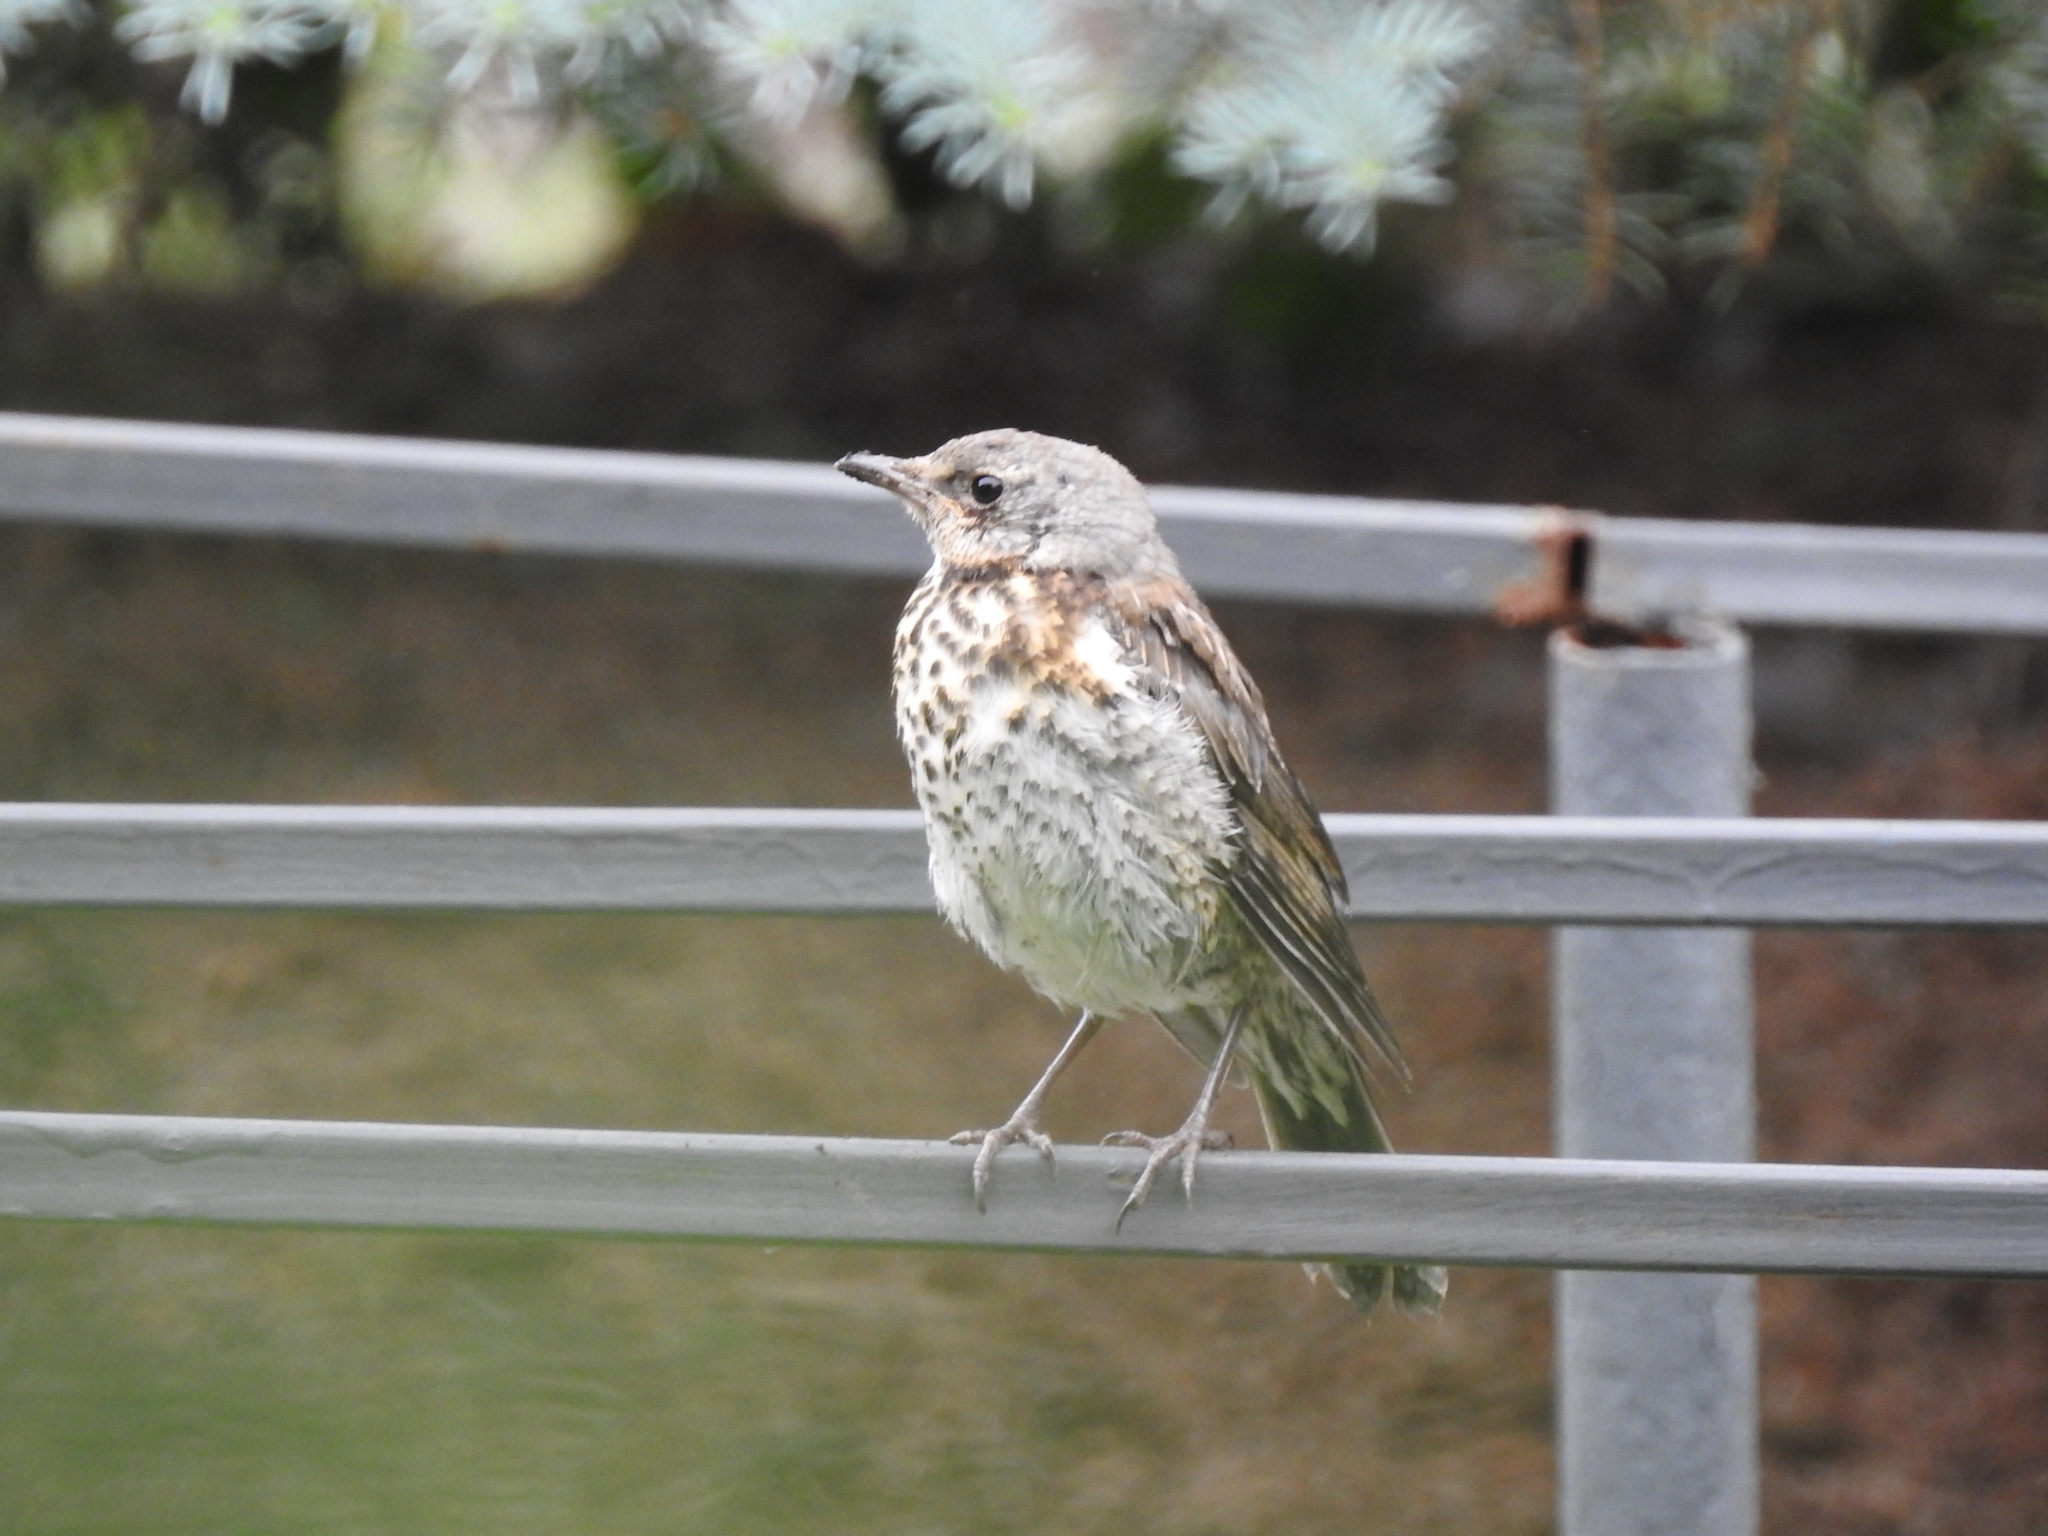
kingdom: Animalia
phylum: Chordata
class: Aves
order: Passeriformes
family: Turdidae
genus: Turdus
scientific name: Turdus pilaris
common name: Fieldfare
